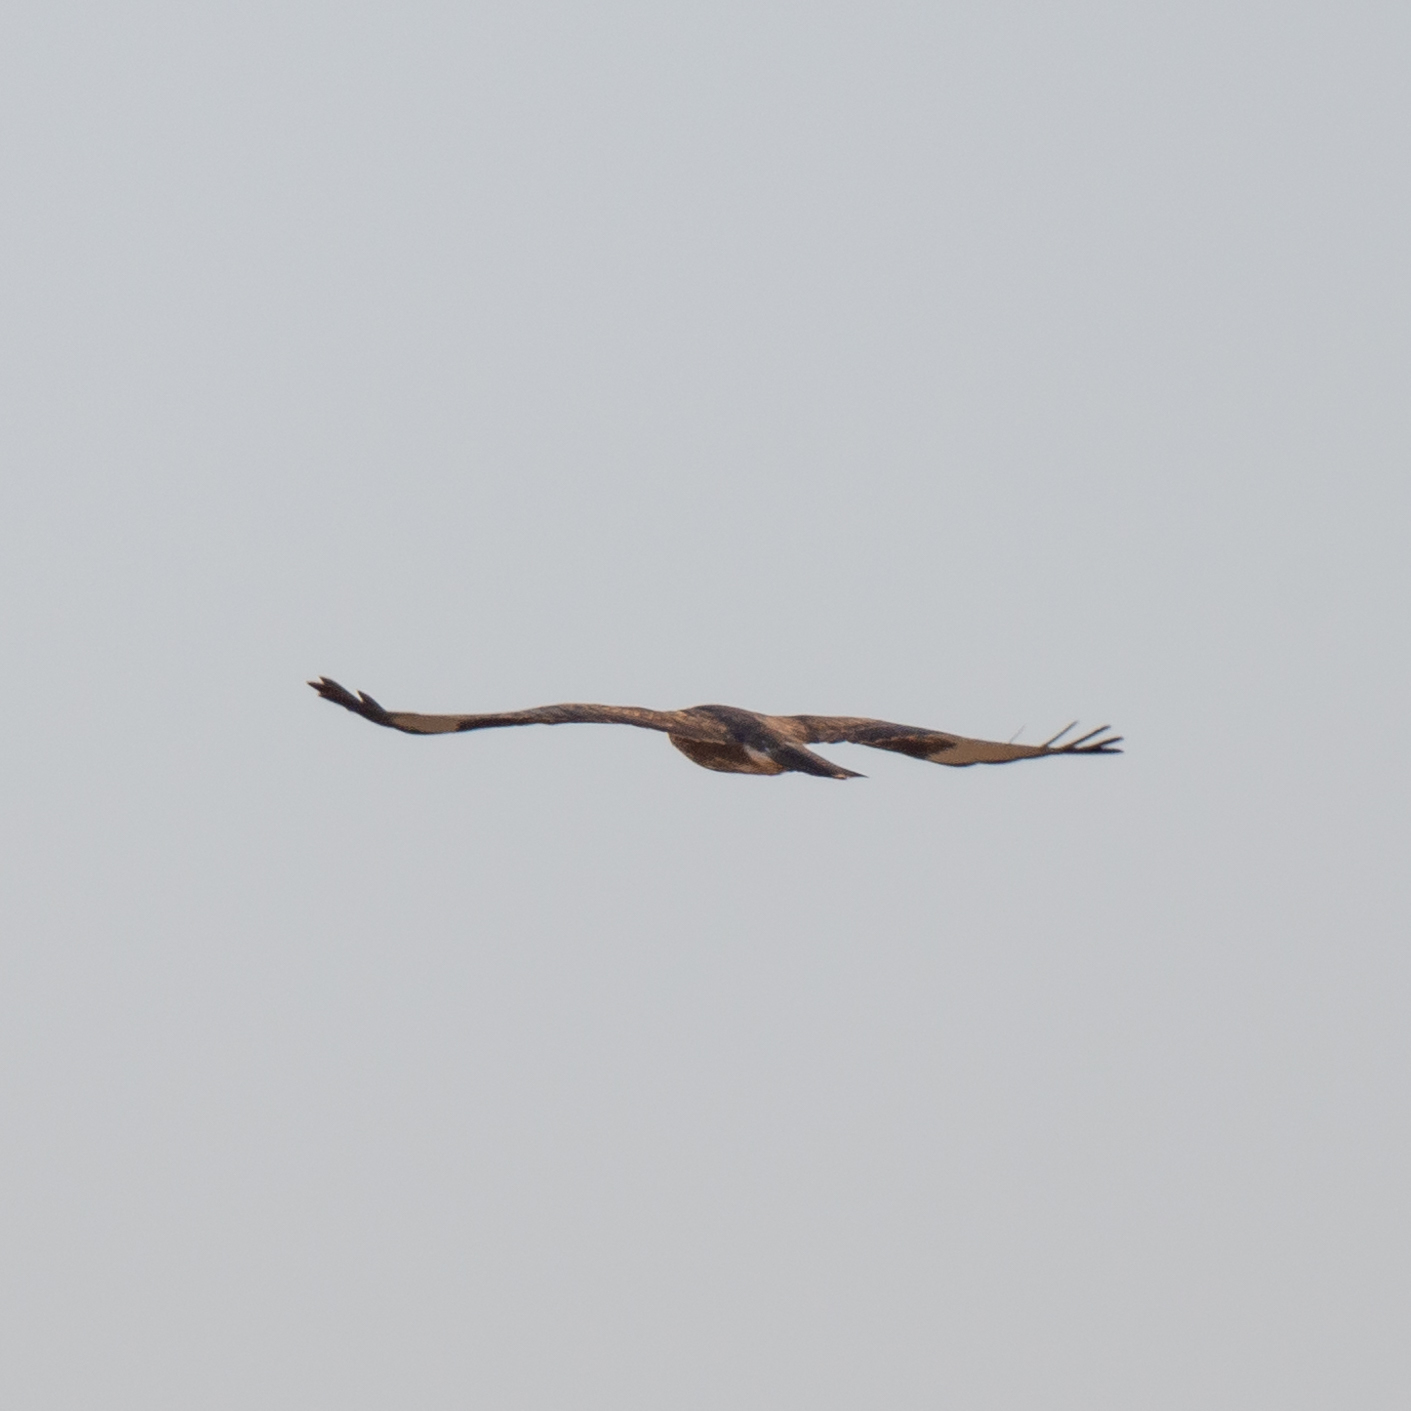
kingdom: Animalia
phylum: Chordata
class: Aves
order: Accipitriformes
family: Accipitridae
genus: Buteo
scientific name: Buteo buteo
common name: Common buzzard
